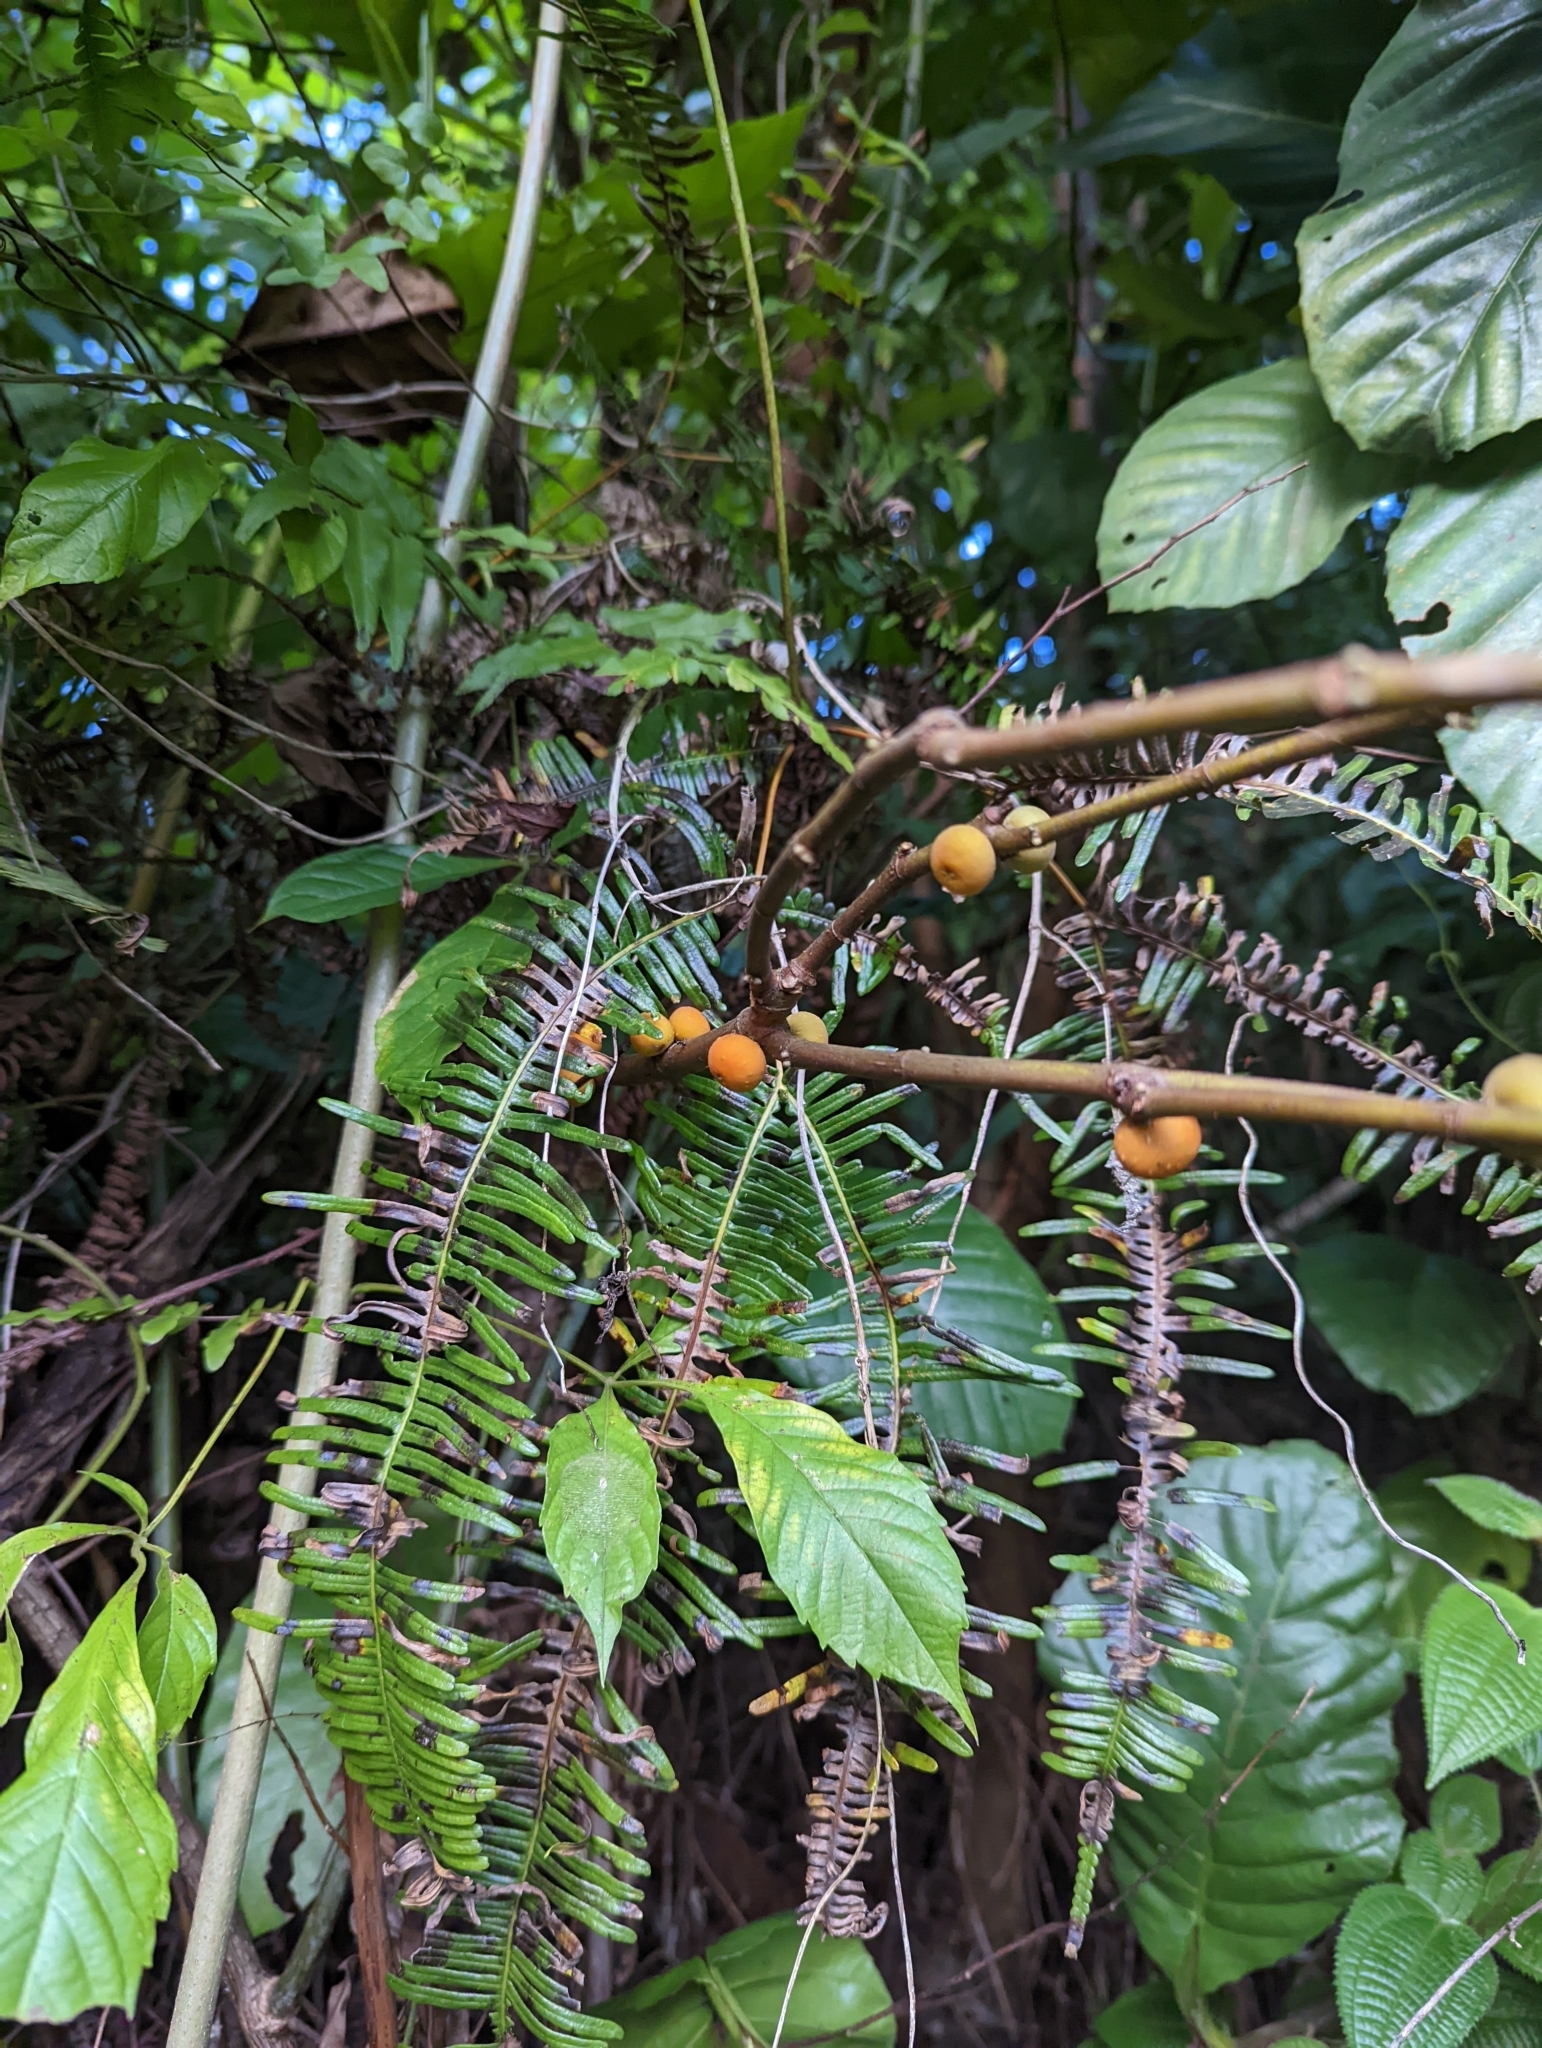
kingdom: Plantae
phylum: Tracheophyta
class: Magnoliopsida
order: Rosales
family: Moraceae
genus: Ficus
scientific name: Ficus grossularioides
